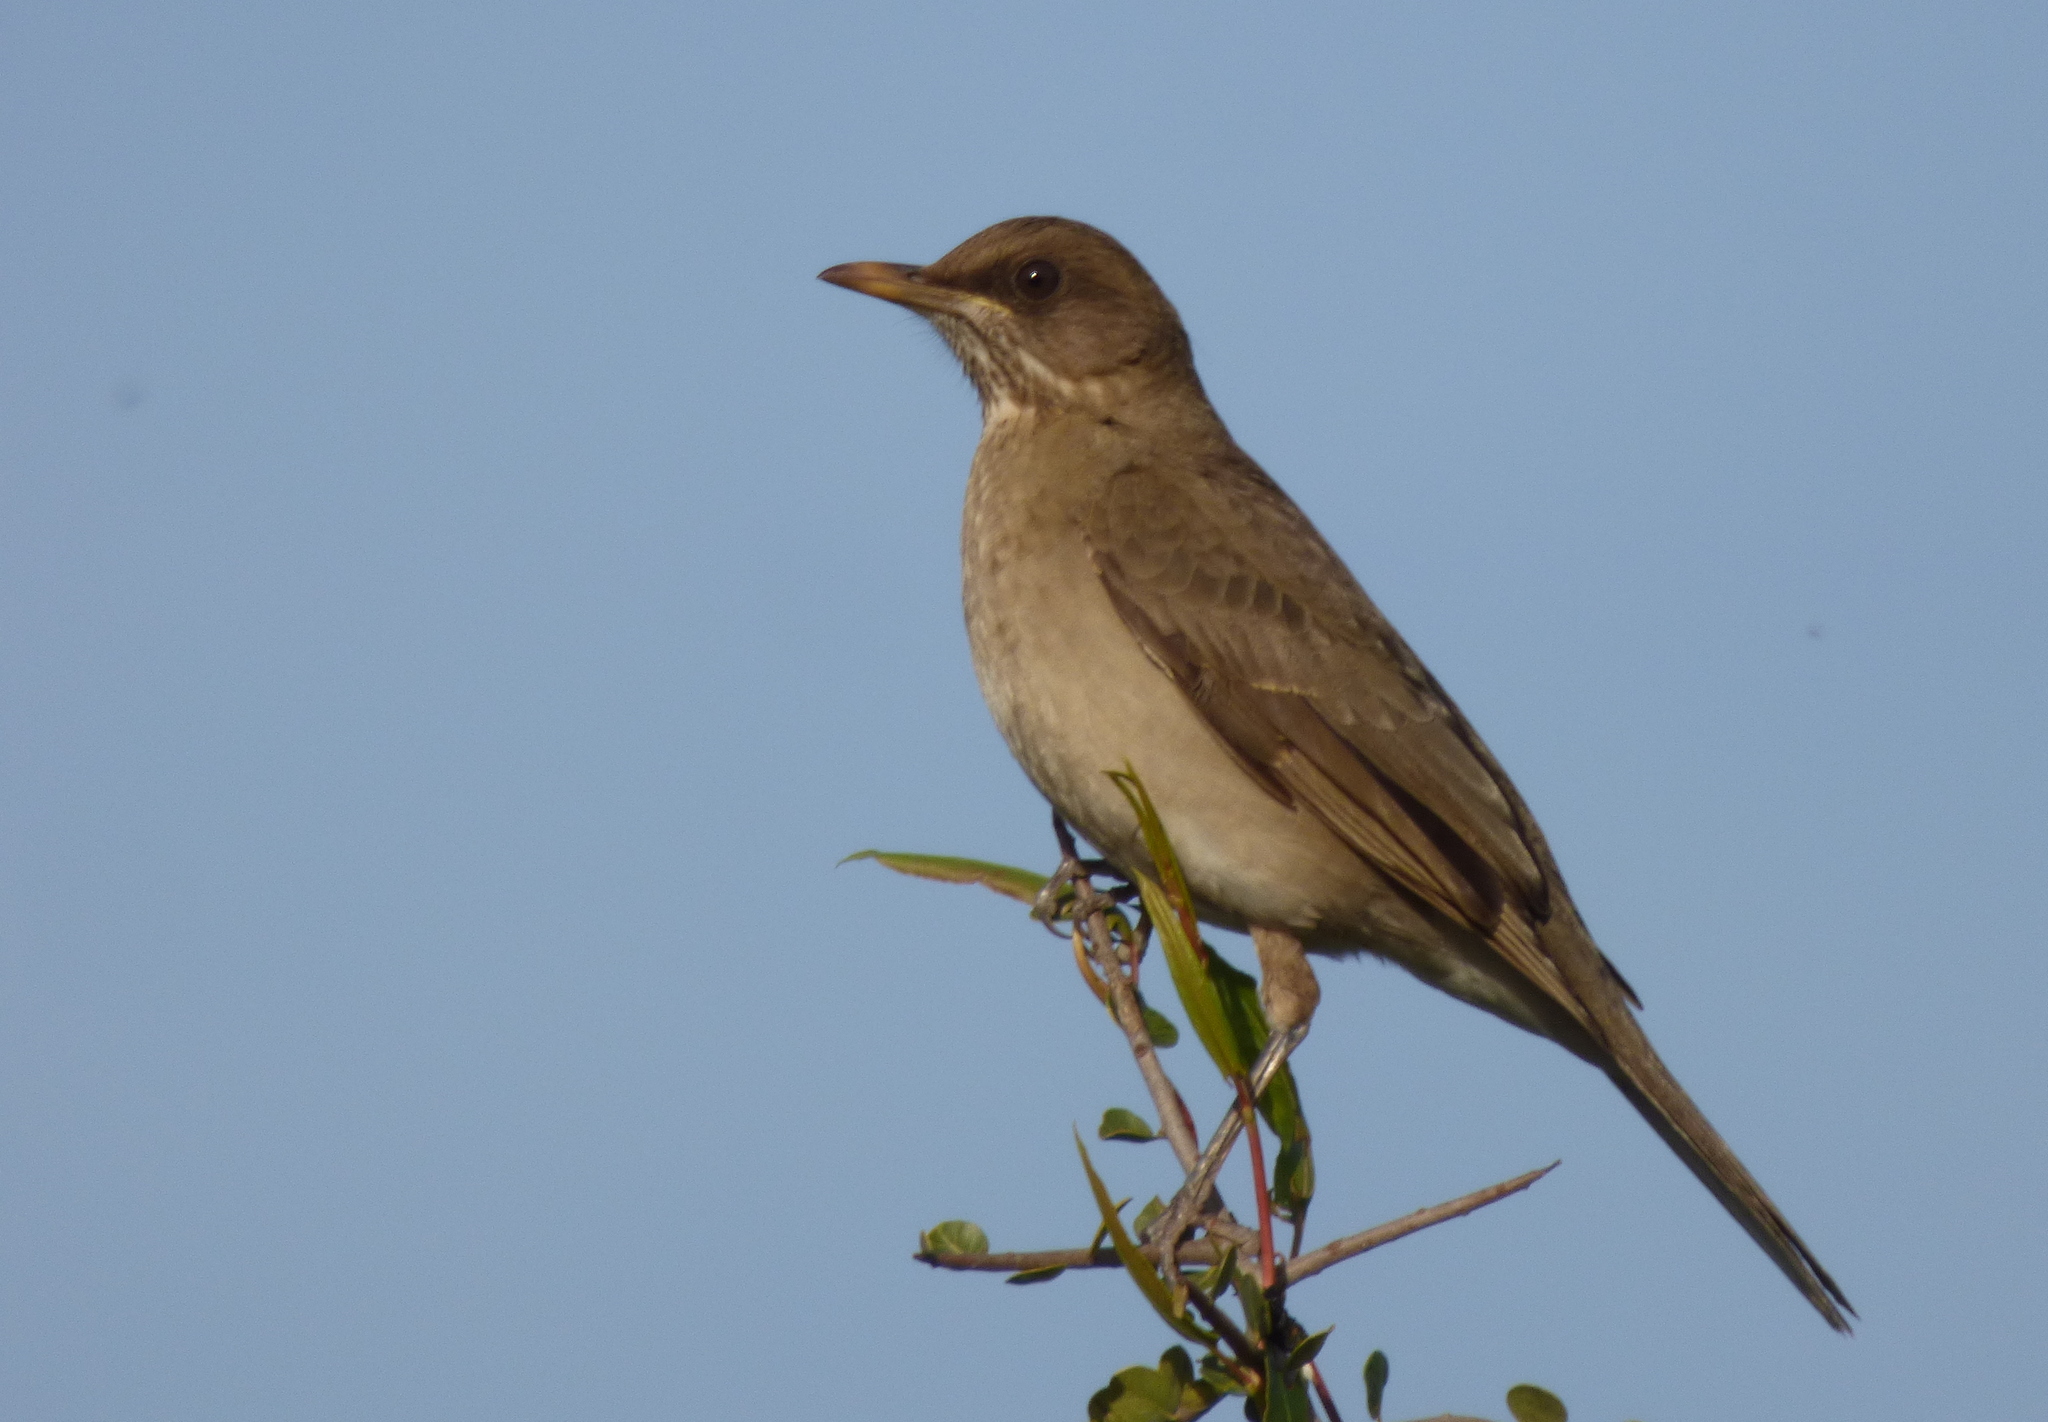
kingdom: Animalia
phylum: Chordata
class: Aves
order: Passeriformes
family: Turdidae
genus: Turdus
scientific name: Turdus amaurochalinus
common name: Creamy-bellied thrush
